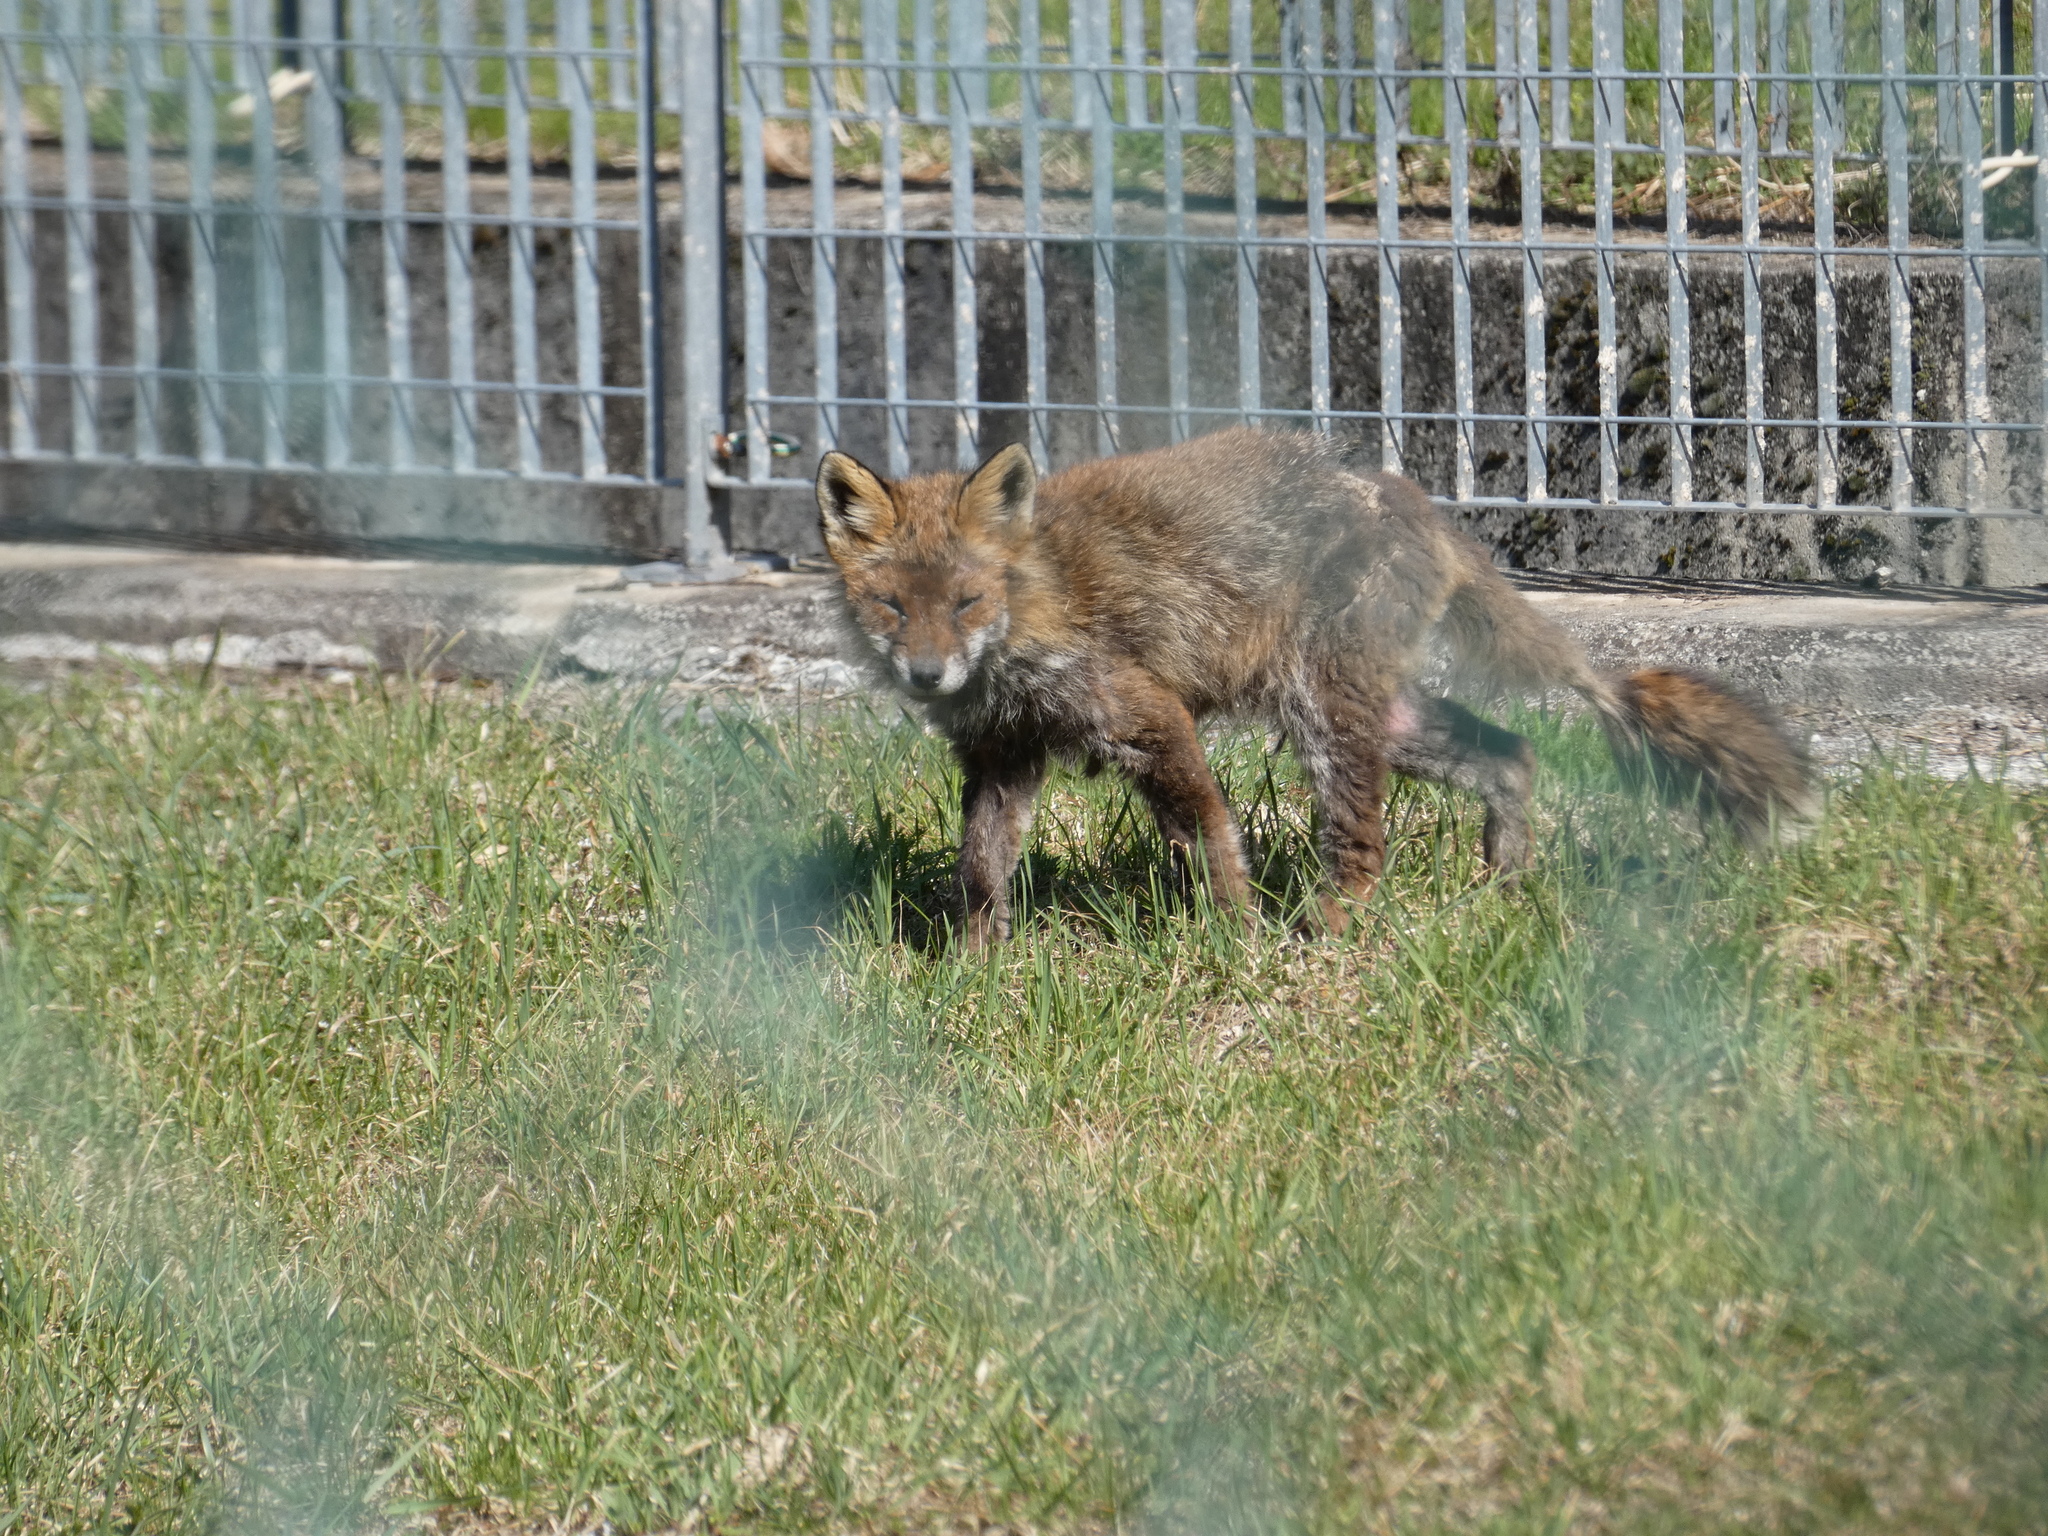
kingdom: Animalia
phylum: Chordata
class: Mammalia
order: Carnivora
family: Canidae
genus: Vulpes
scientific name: Vulpes vulpes
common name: Red fox
